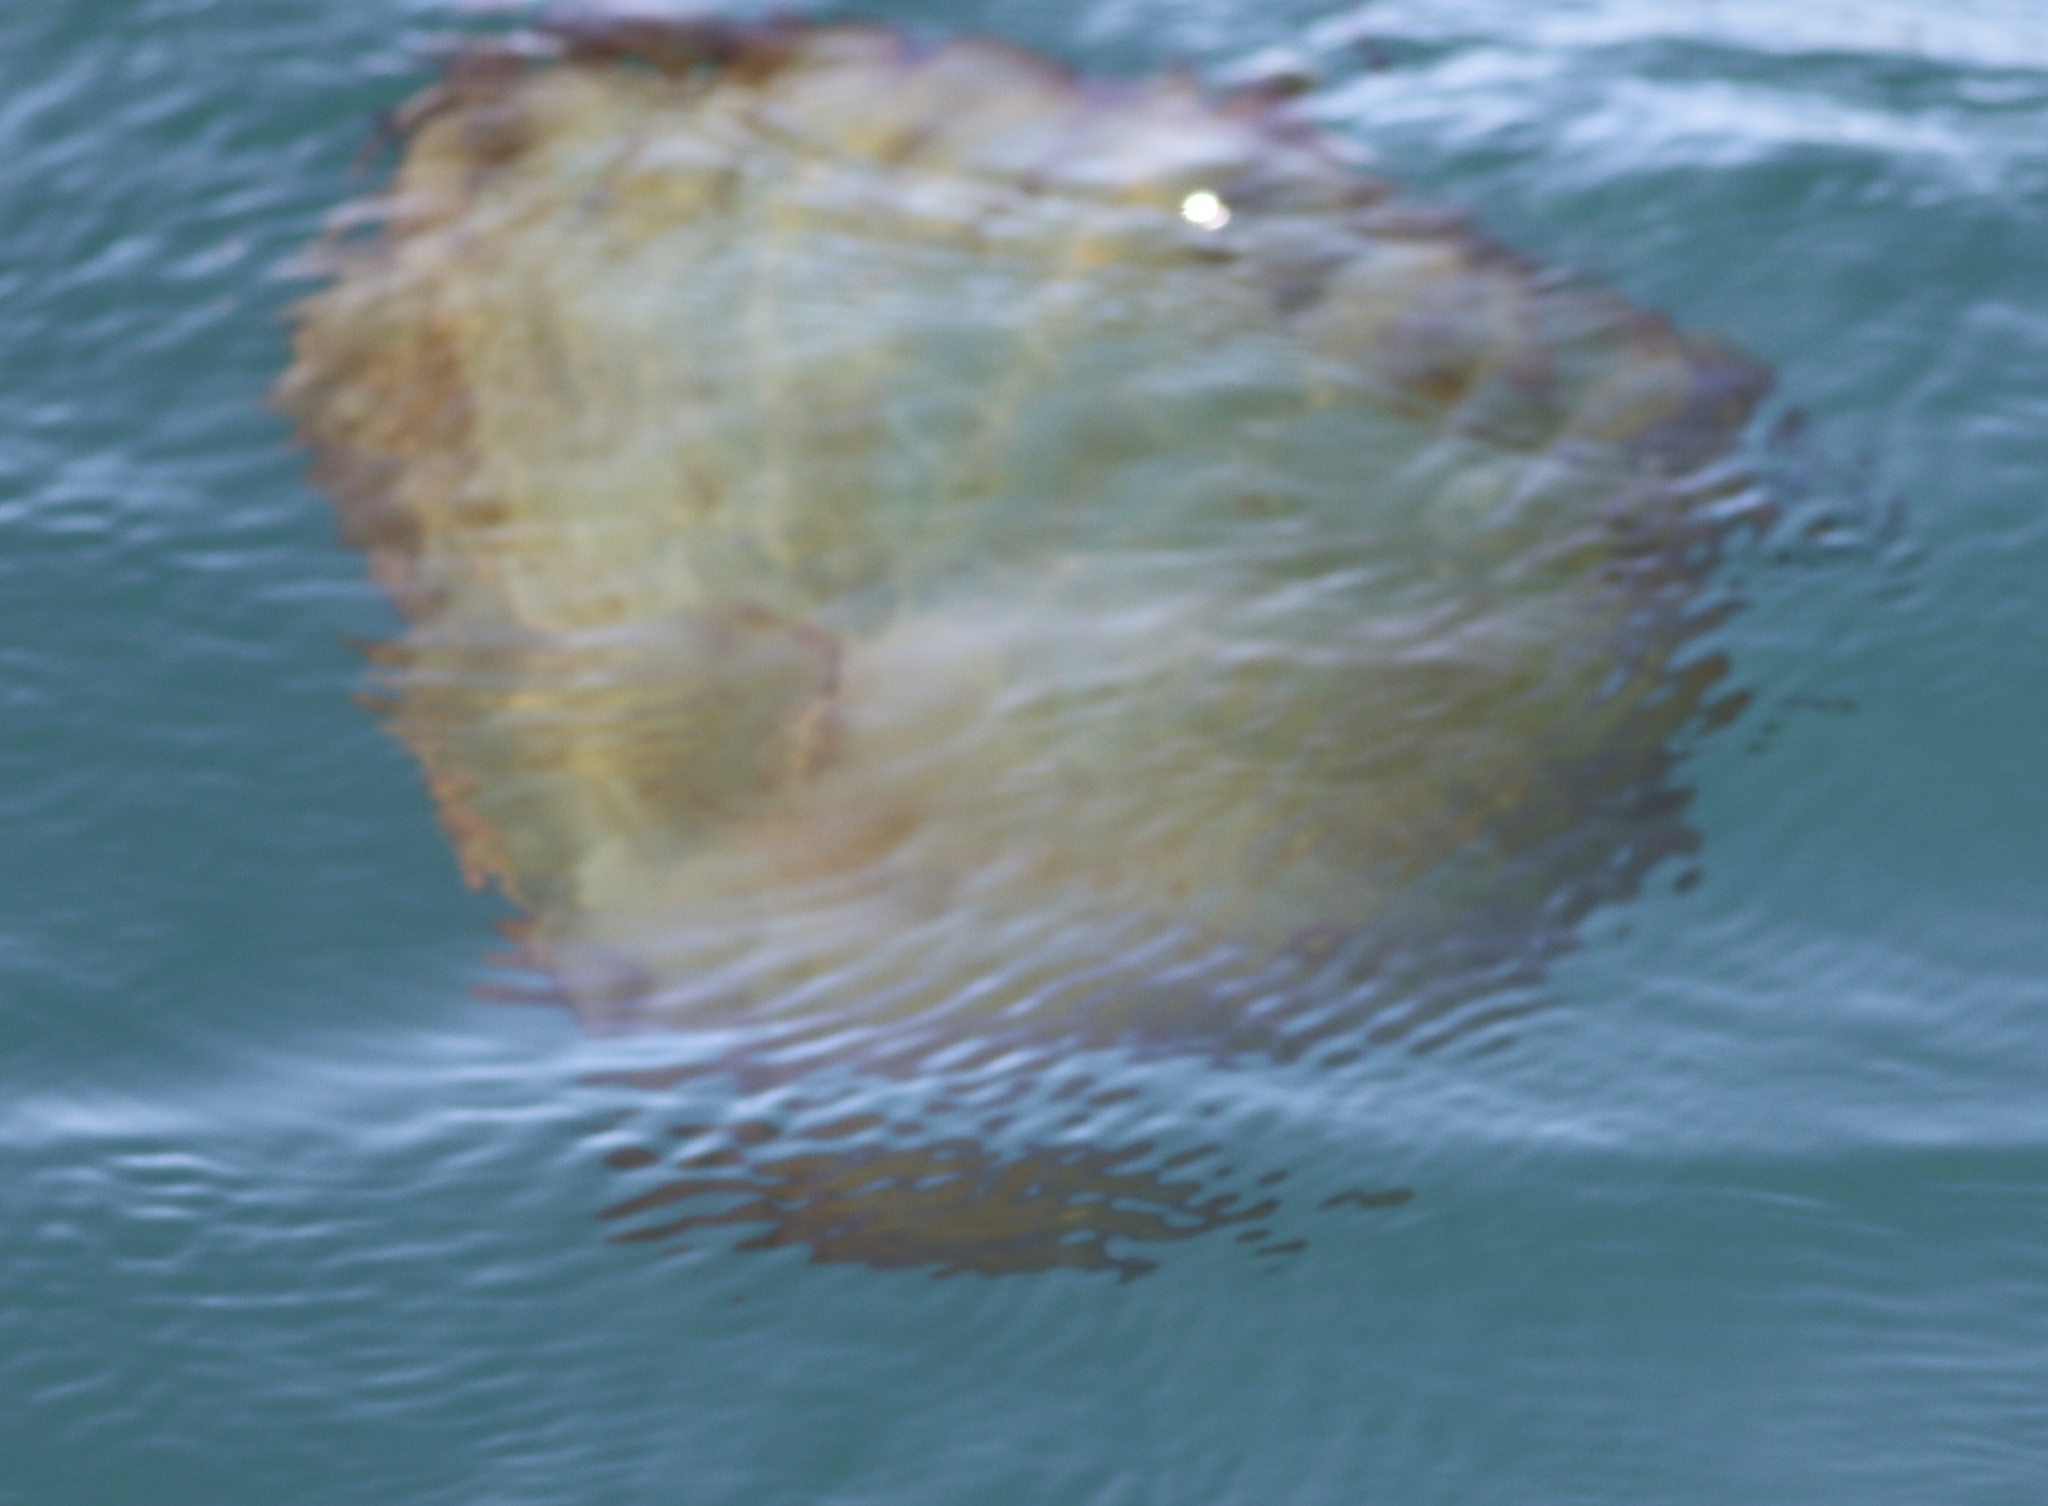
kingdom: Animalia
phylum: Cnidaria
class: Scyphozoa
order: Semaeostomeae
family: Pelagiidae
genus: Chrysaora
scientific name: Chrysaora fuscescens
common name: Sea nettle
